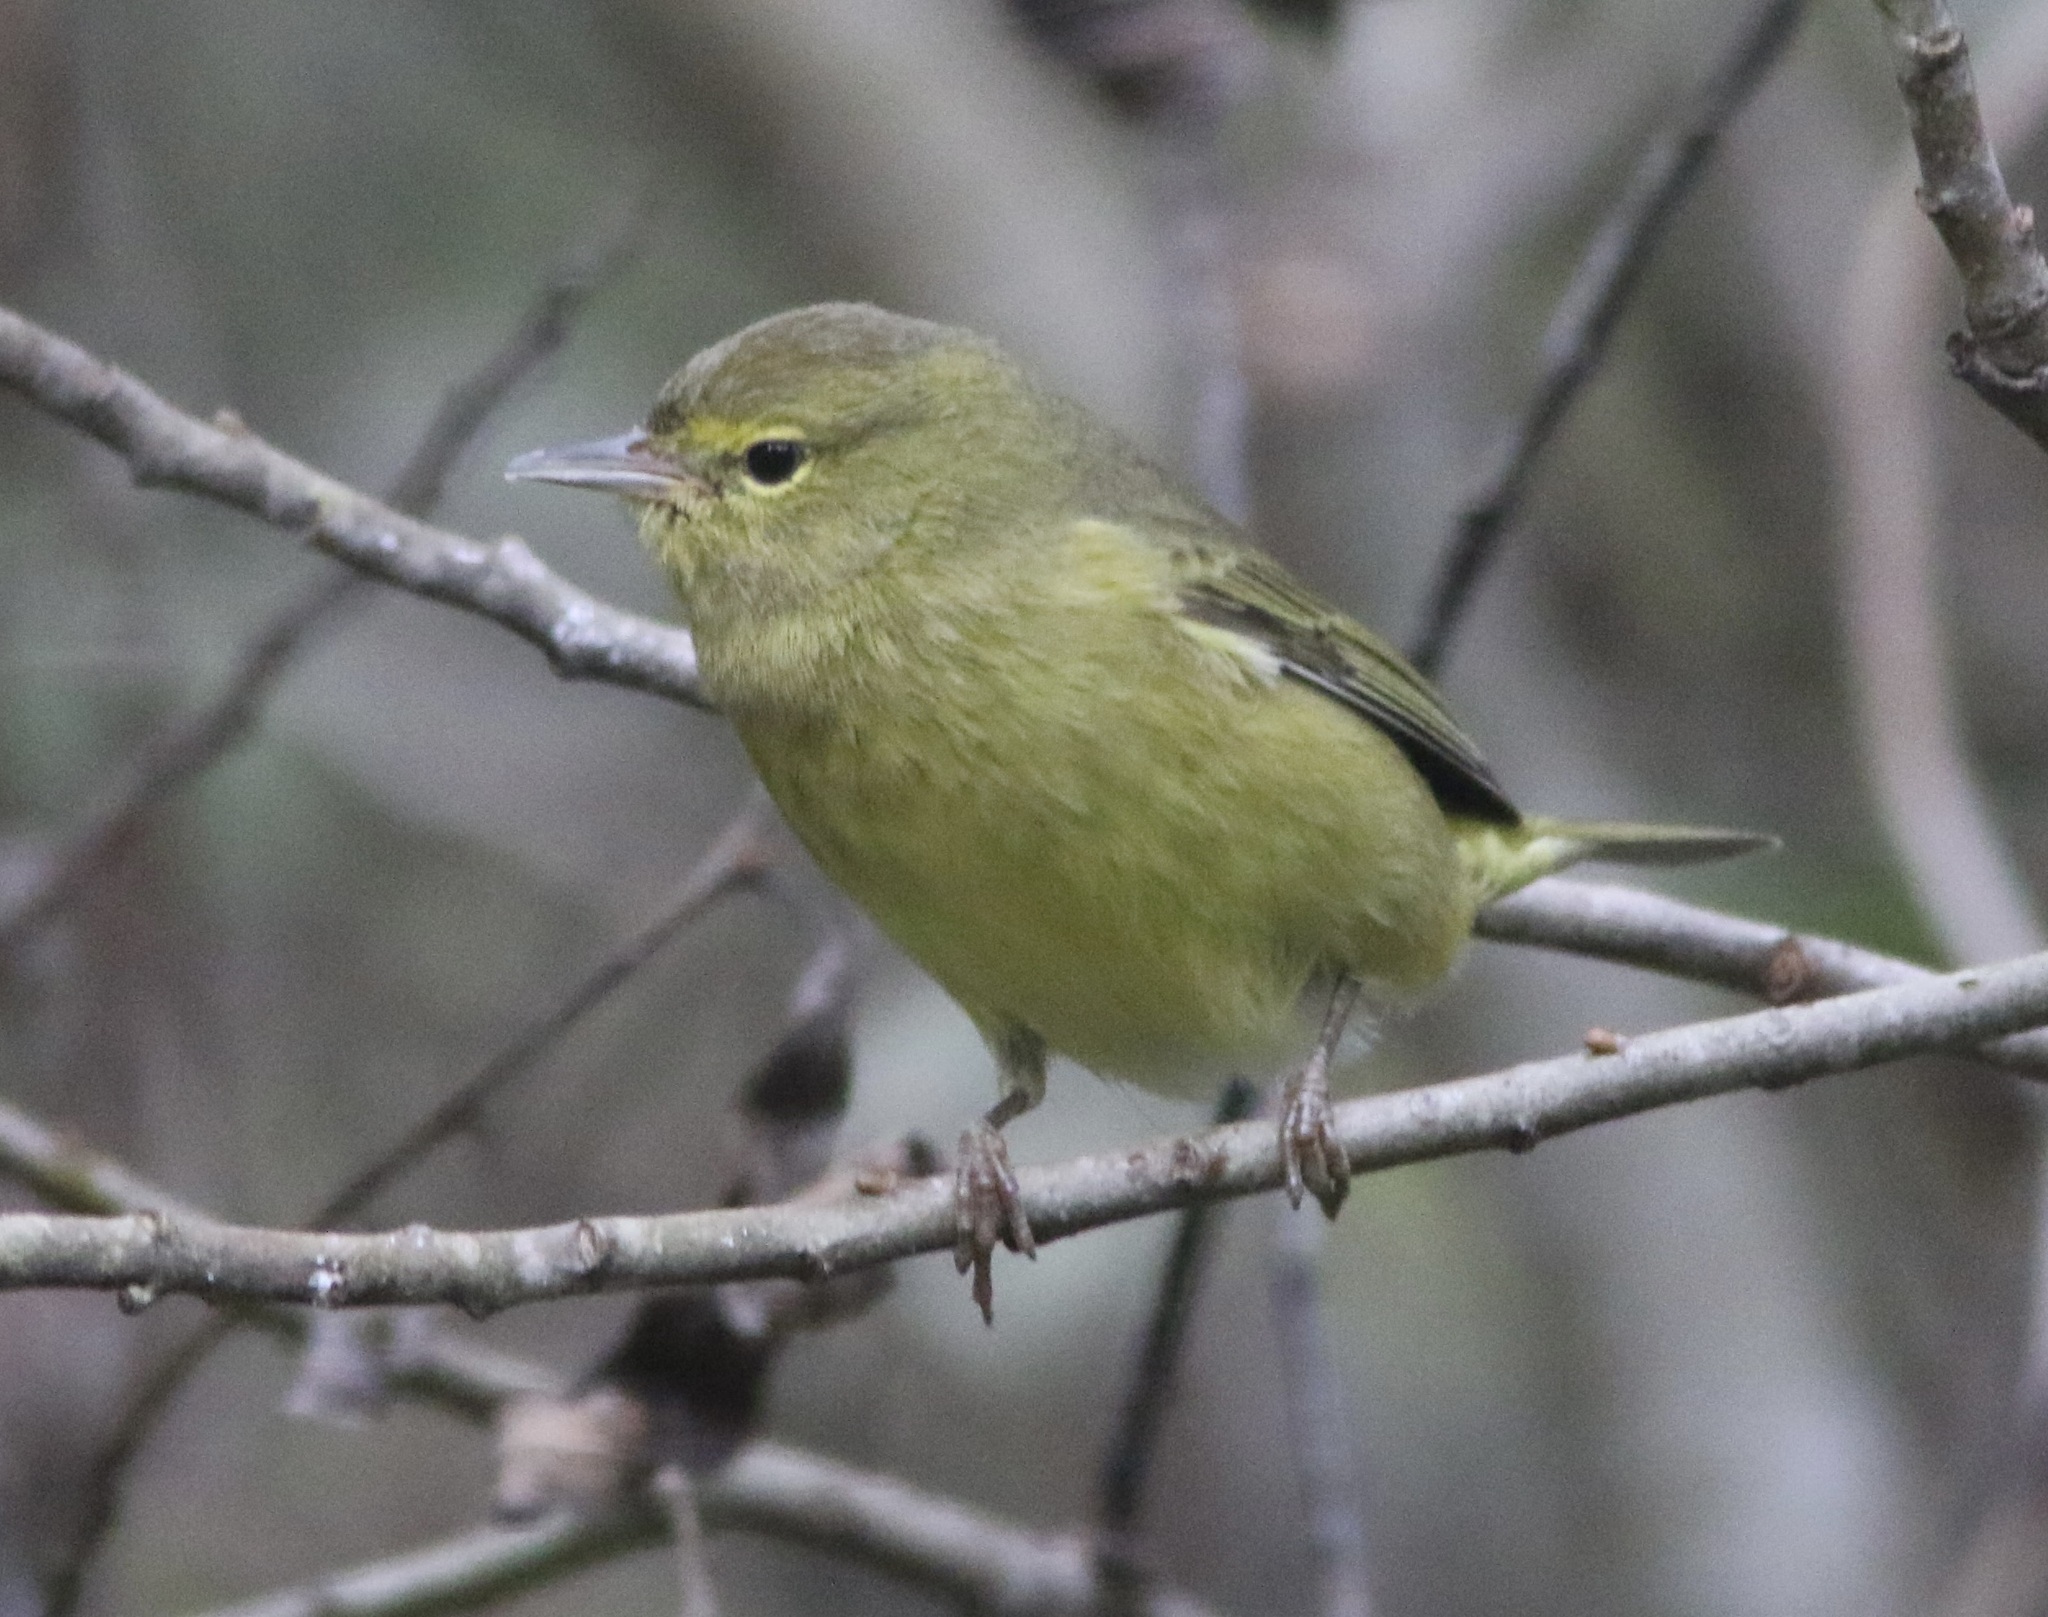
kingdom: Animalia
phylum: Chordata
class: Aves
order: Passeriformes
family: Parulidae
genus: Leiothlypis
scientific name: Leiothlypis celata
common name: Orange-crowned warbler
